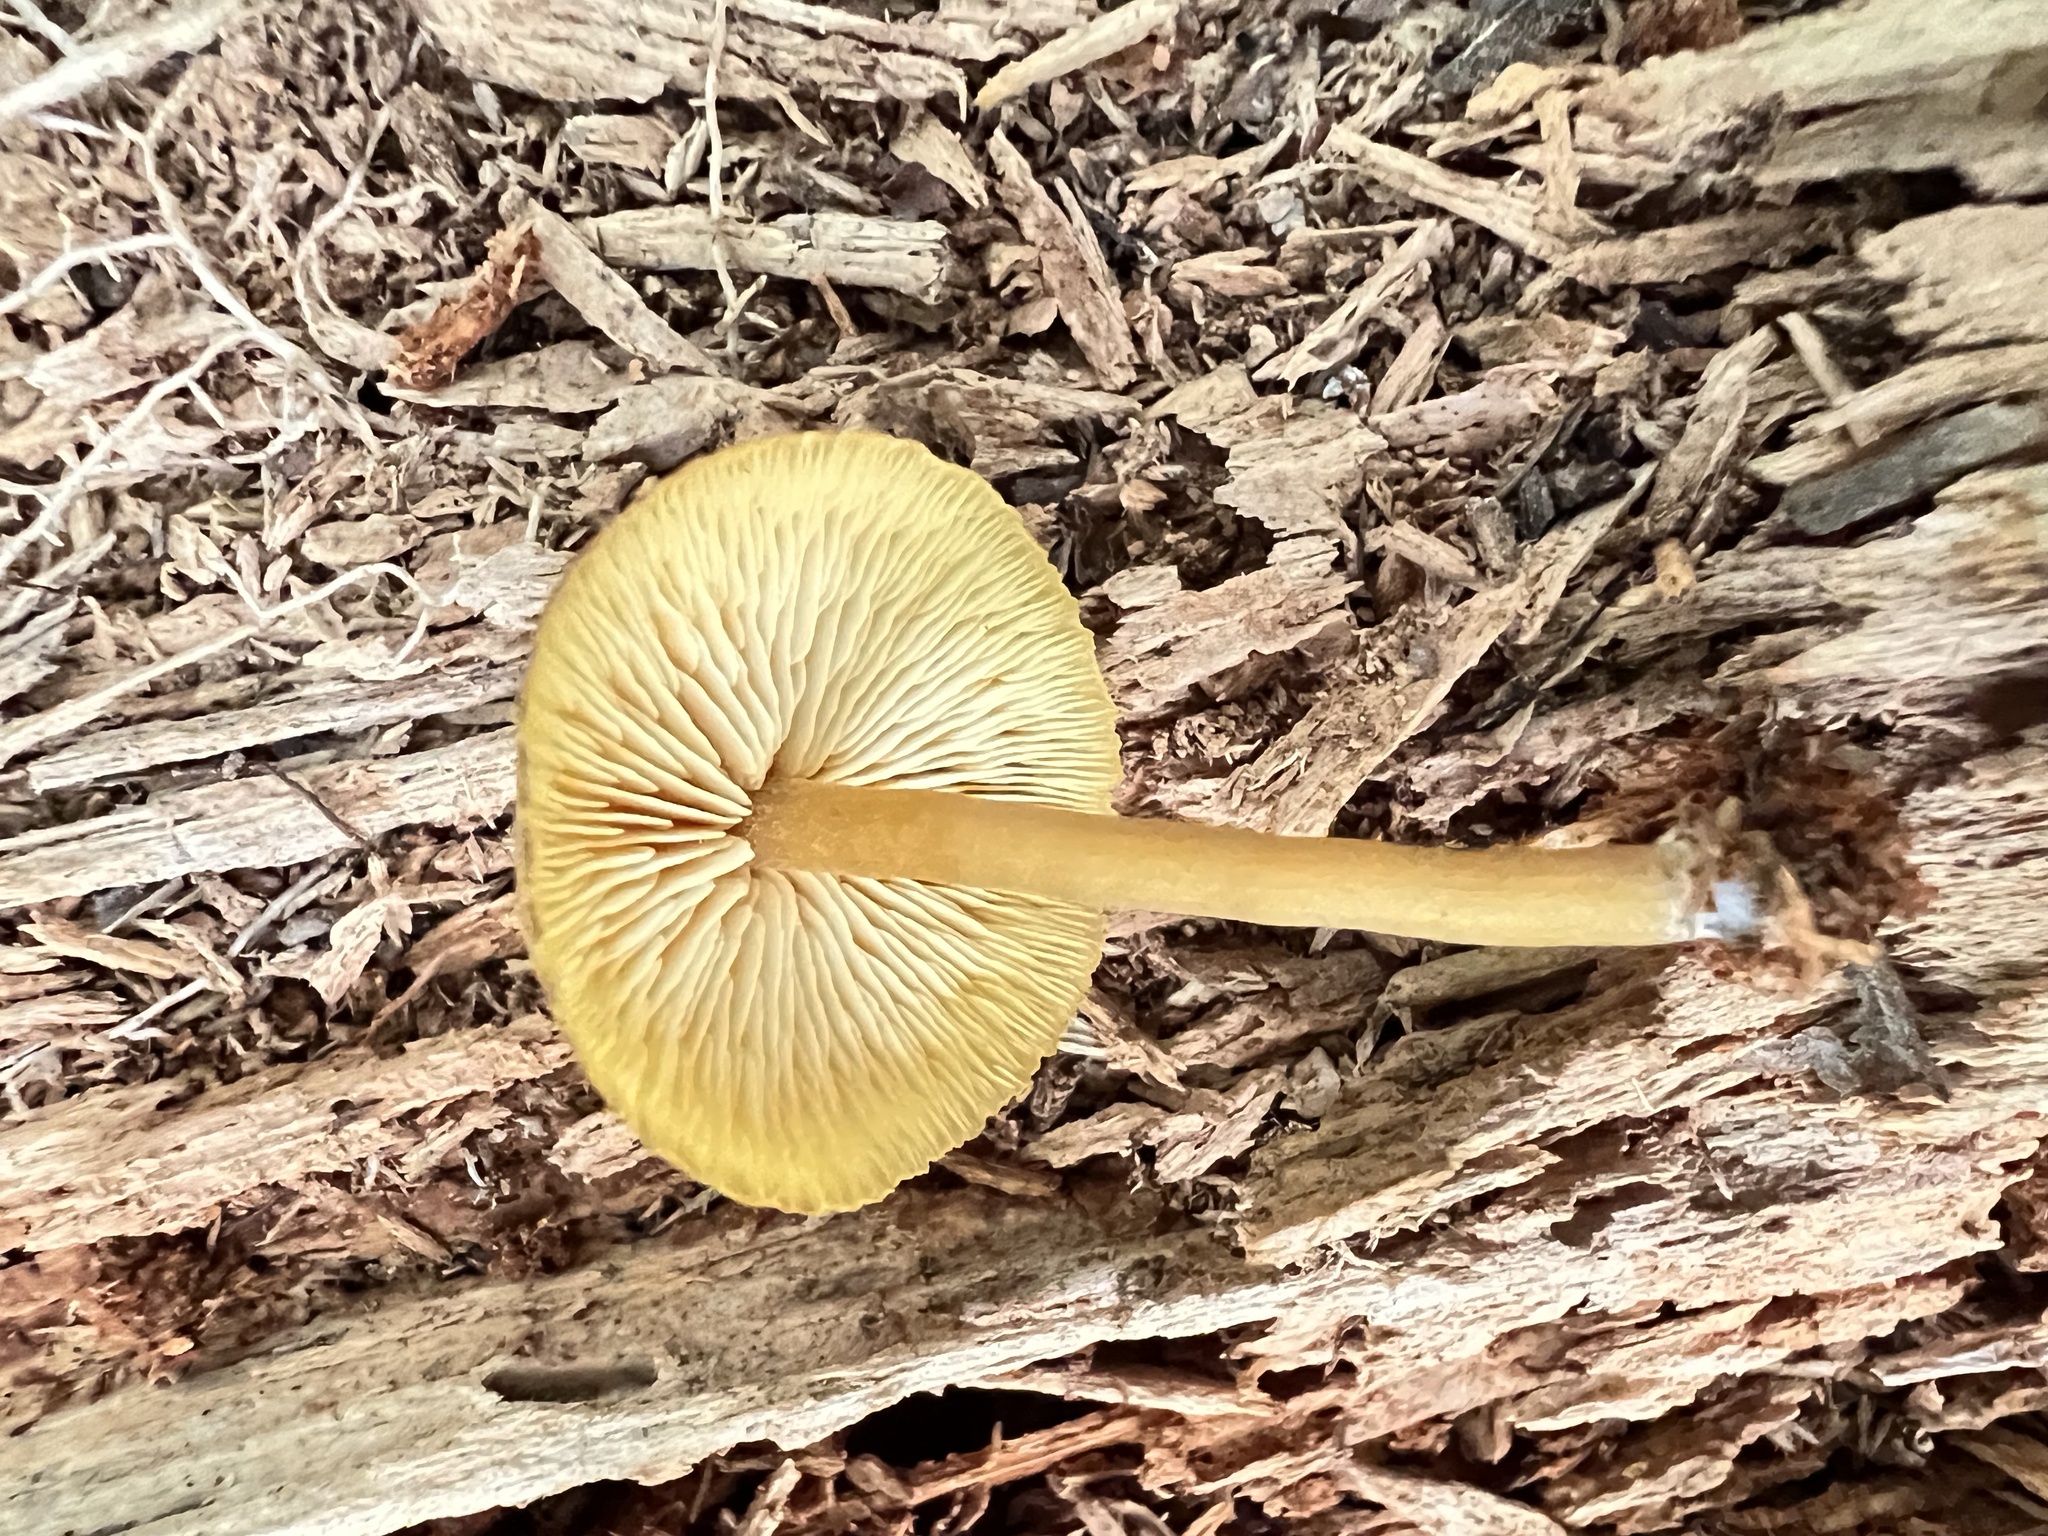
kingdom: Fungi
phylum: Basidiomycota
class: Agaricomycetes
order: Agaricales
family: Callistosporiaceae
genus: Callistosporium
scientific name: Callistosporium luteo-olivaceum
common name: Olive lute
